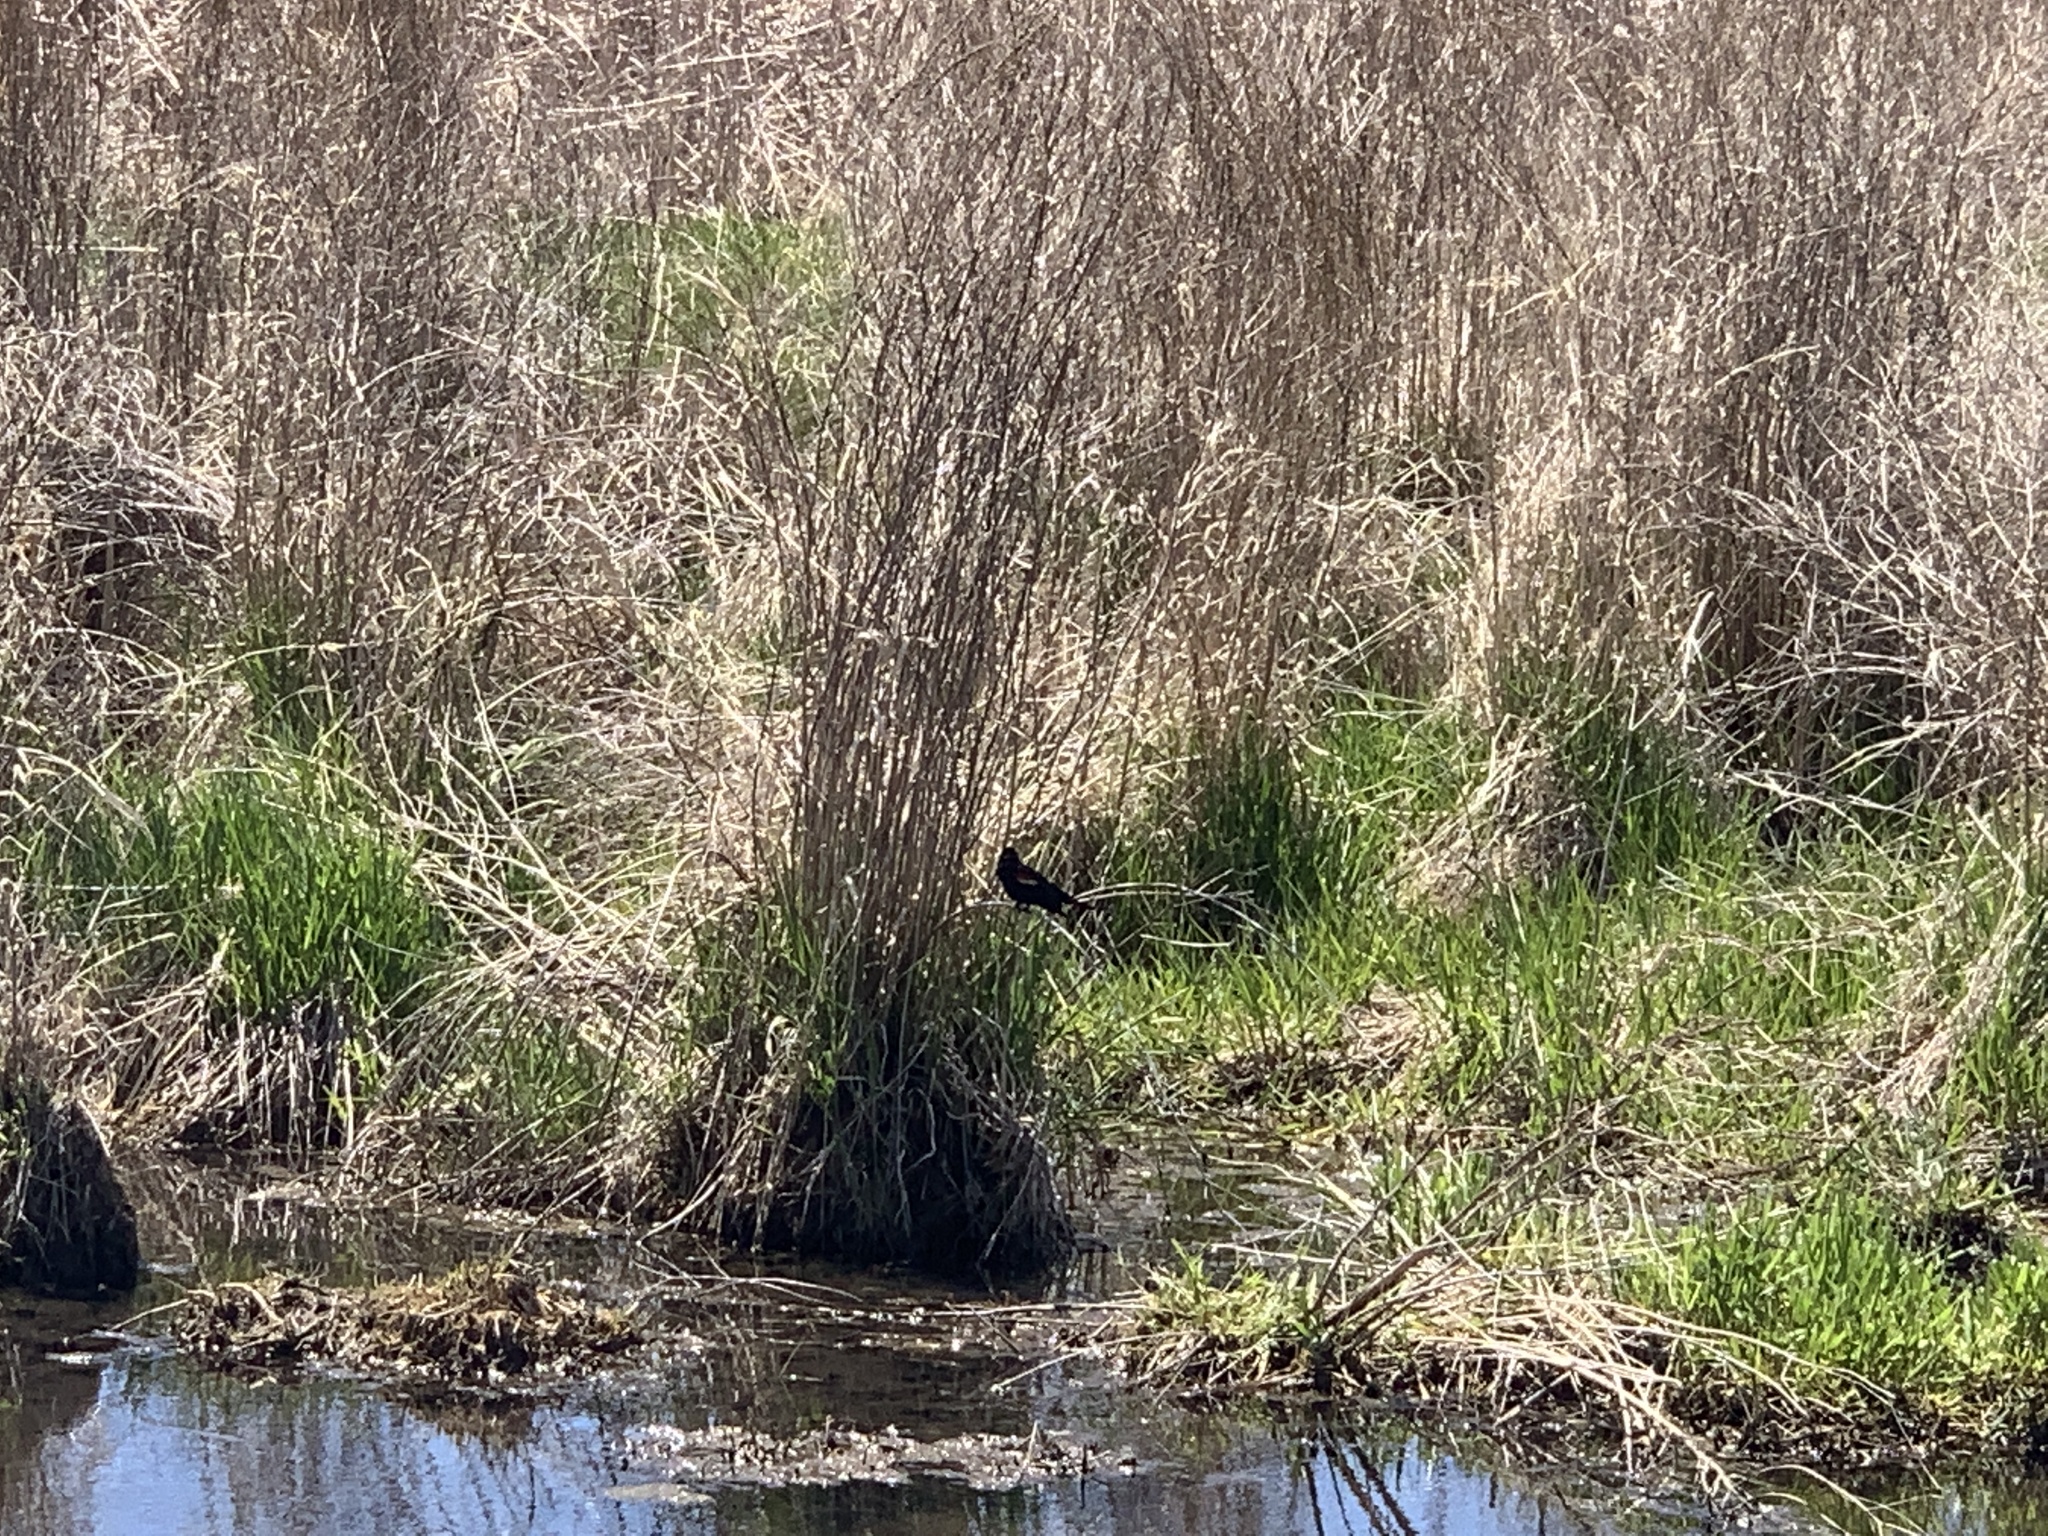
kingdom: Animalia
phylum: Chordata
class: Aves
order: Passeriformes
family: Icteridae
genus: Agelaius
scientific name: Agelaius phoeniceus
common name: Red-winged blackbird
